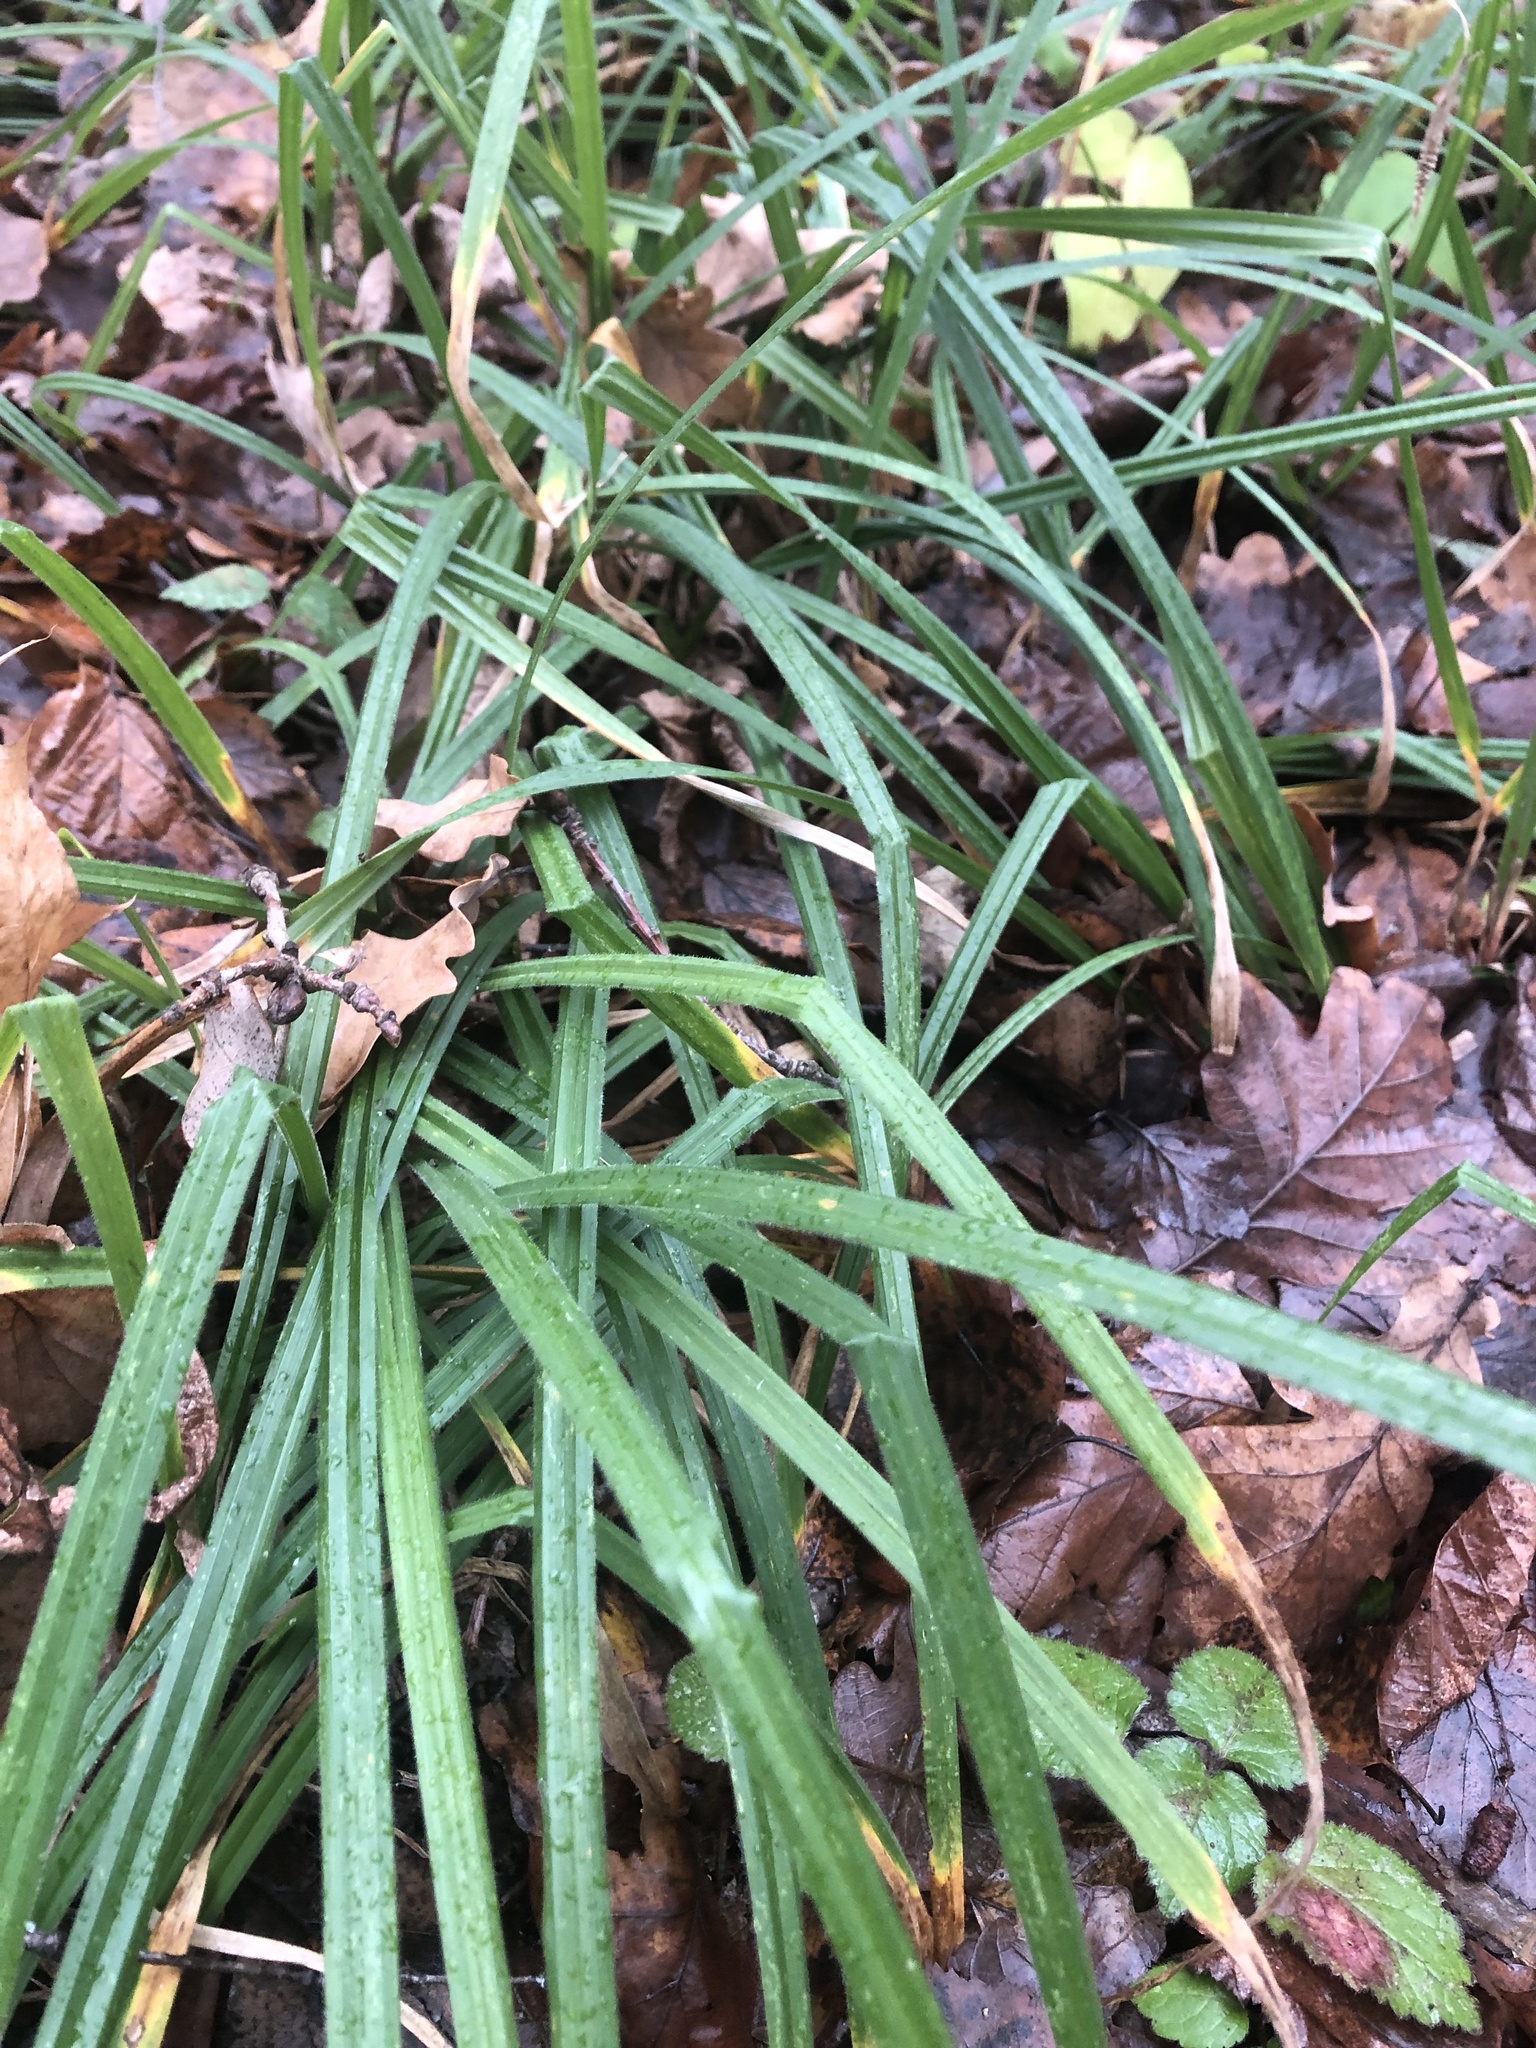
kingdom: Plantae
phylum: Tracheophyta
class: Liliopsida
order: Poales
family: Cyperaceae
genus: Carex
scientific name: Carex pilosa
